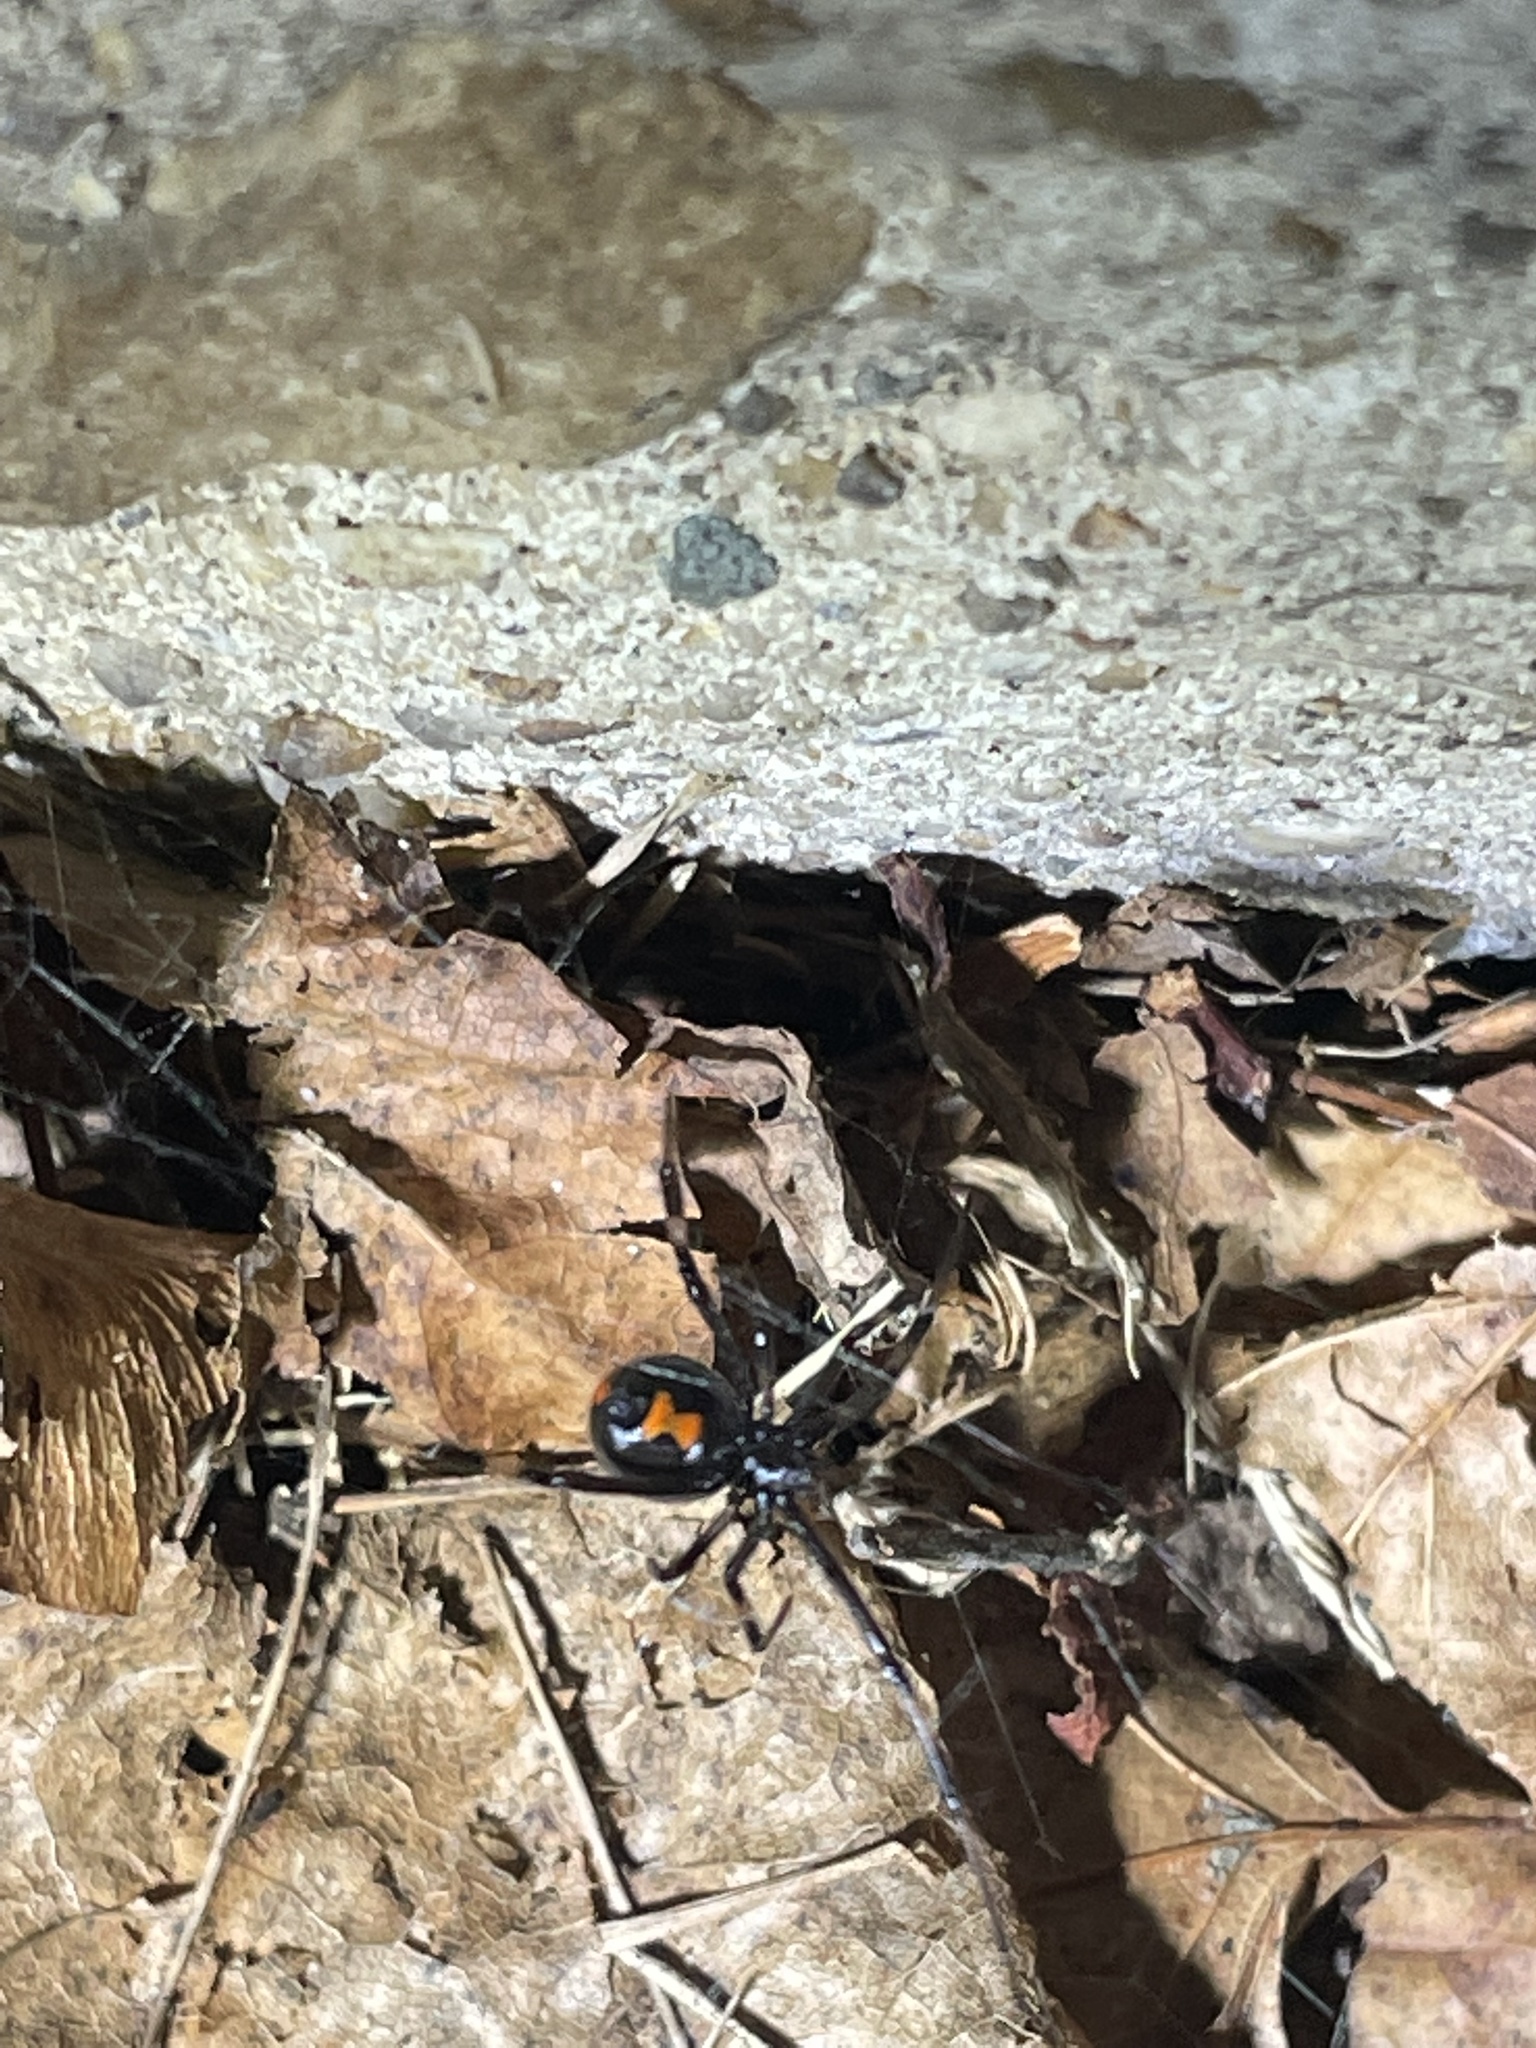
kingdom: Animalia
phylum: Arthropoda
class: Arachnida
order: Araneae
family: Theridiidae
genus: Latrodectus
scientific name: Latrodectus mactans
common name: Cobweb spiders
